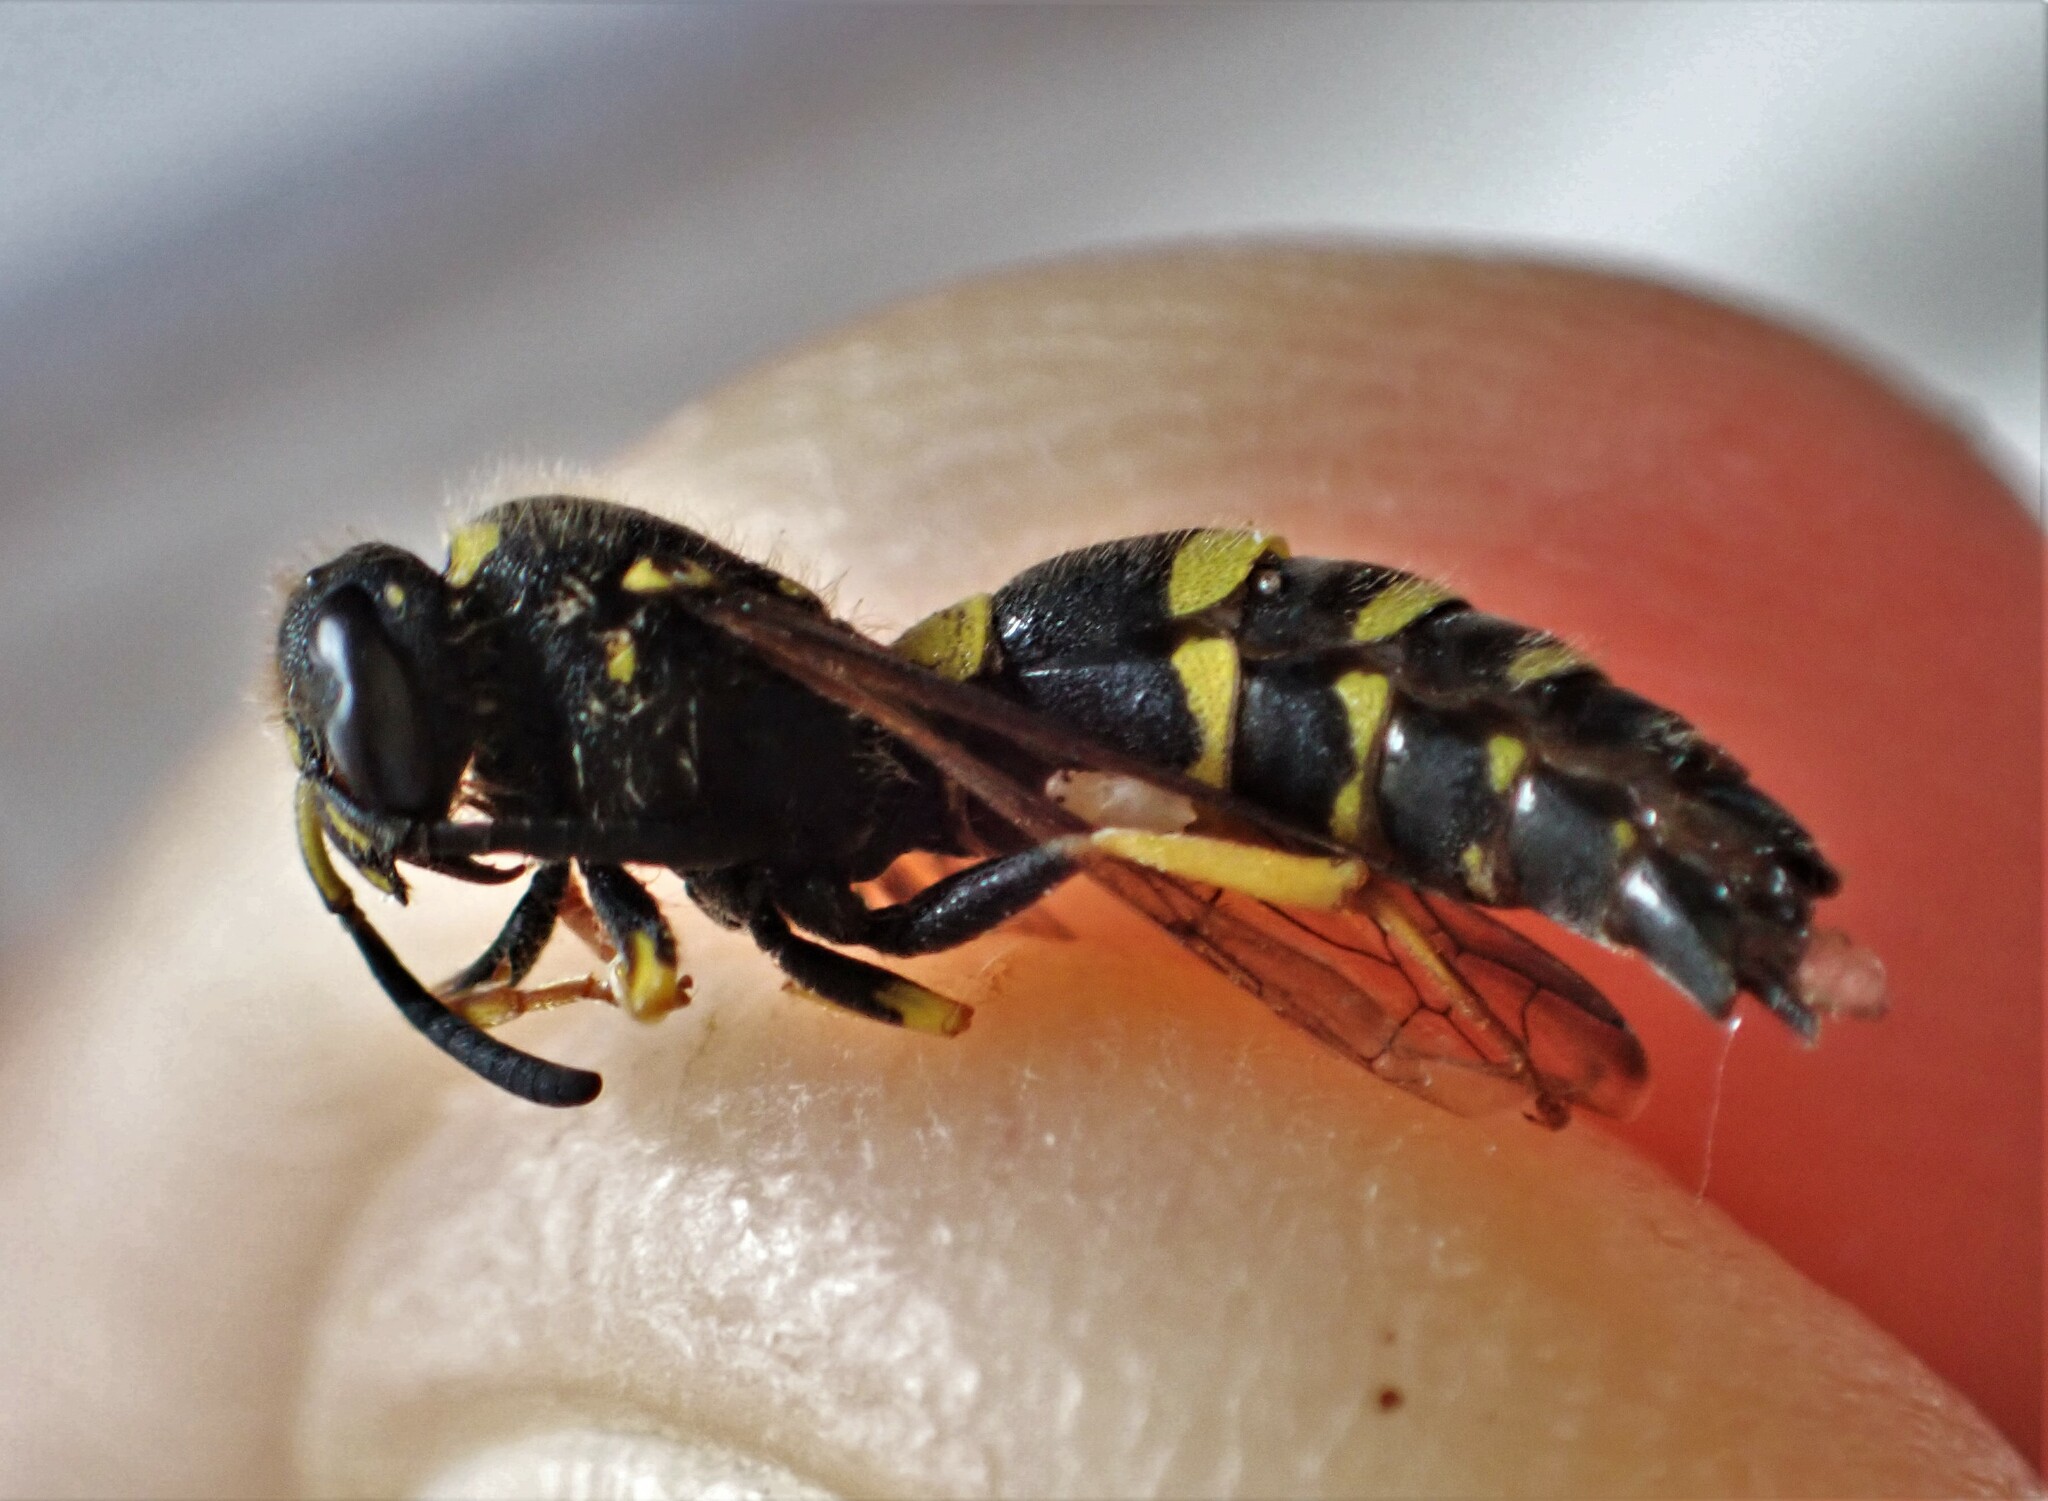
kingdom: Animalia
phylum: Arthropoda
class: Insecta
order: Hymenoptera
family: Vespidae
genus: Ancistrocerus
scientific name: Ancistrocerus gazella
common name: European tube wasp
